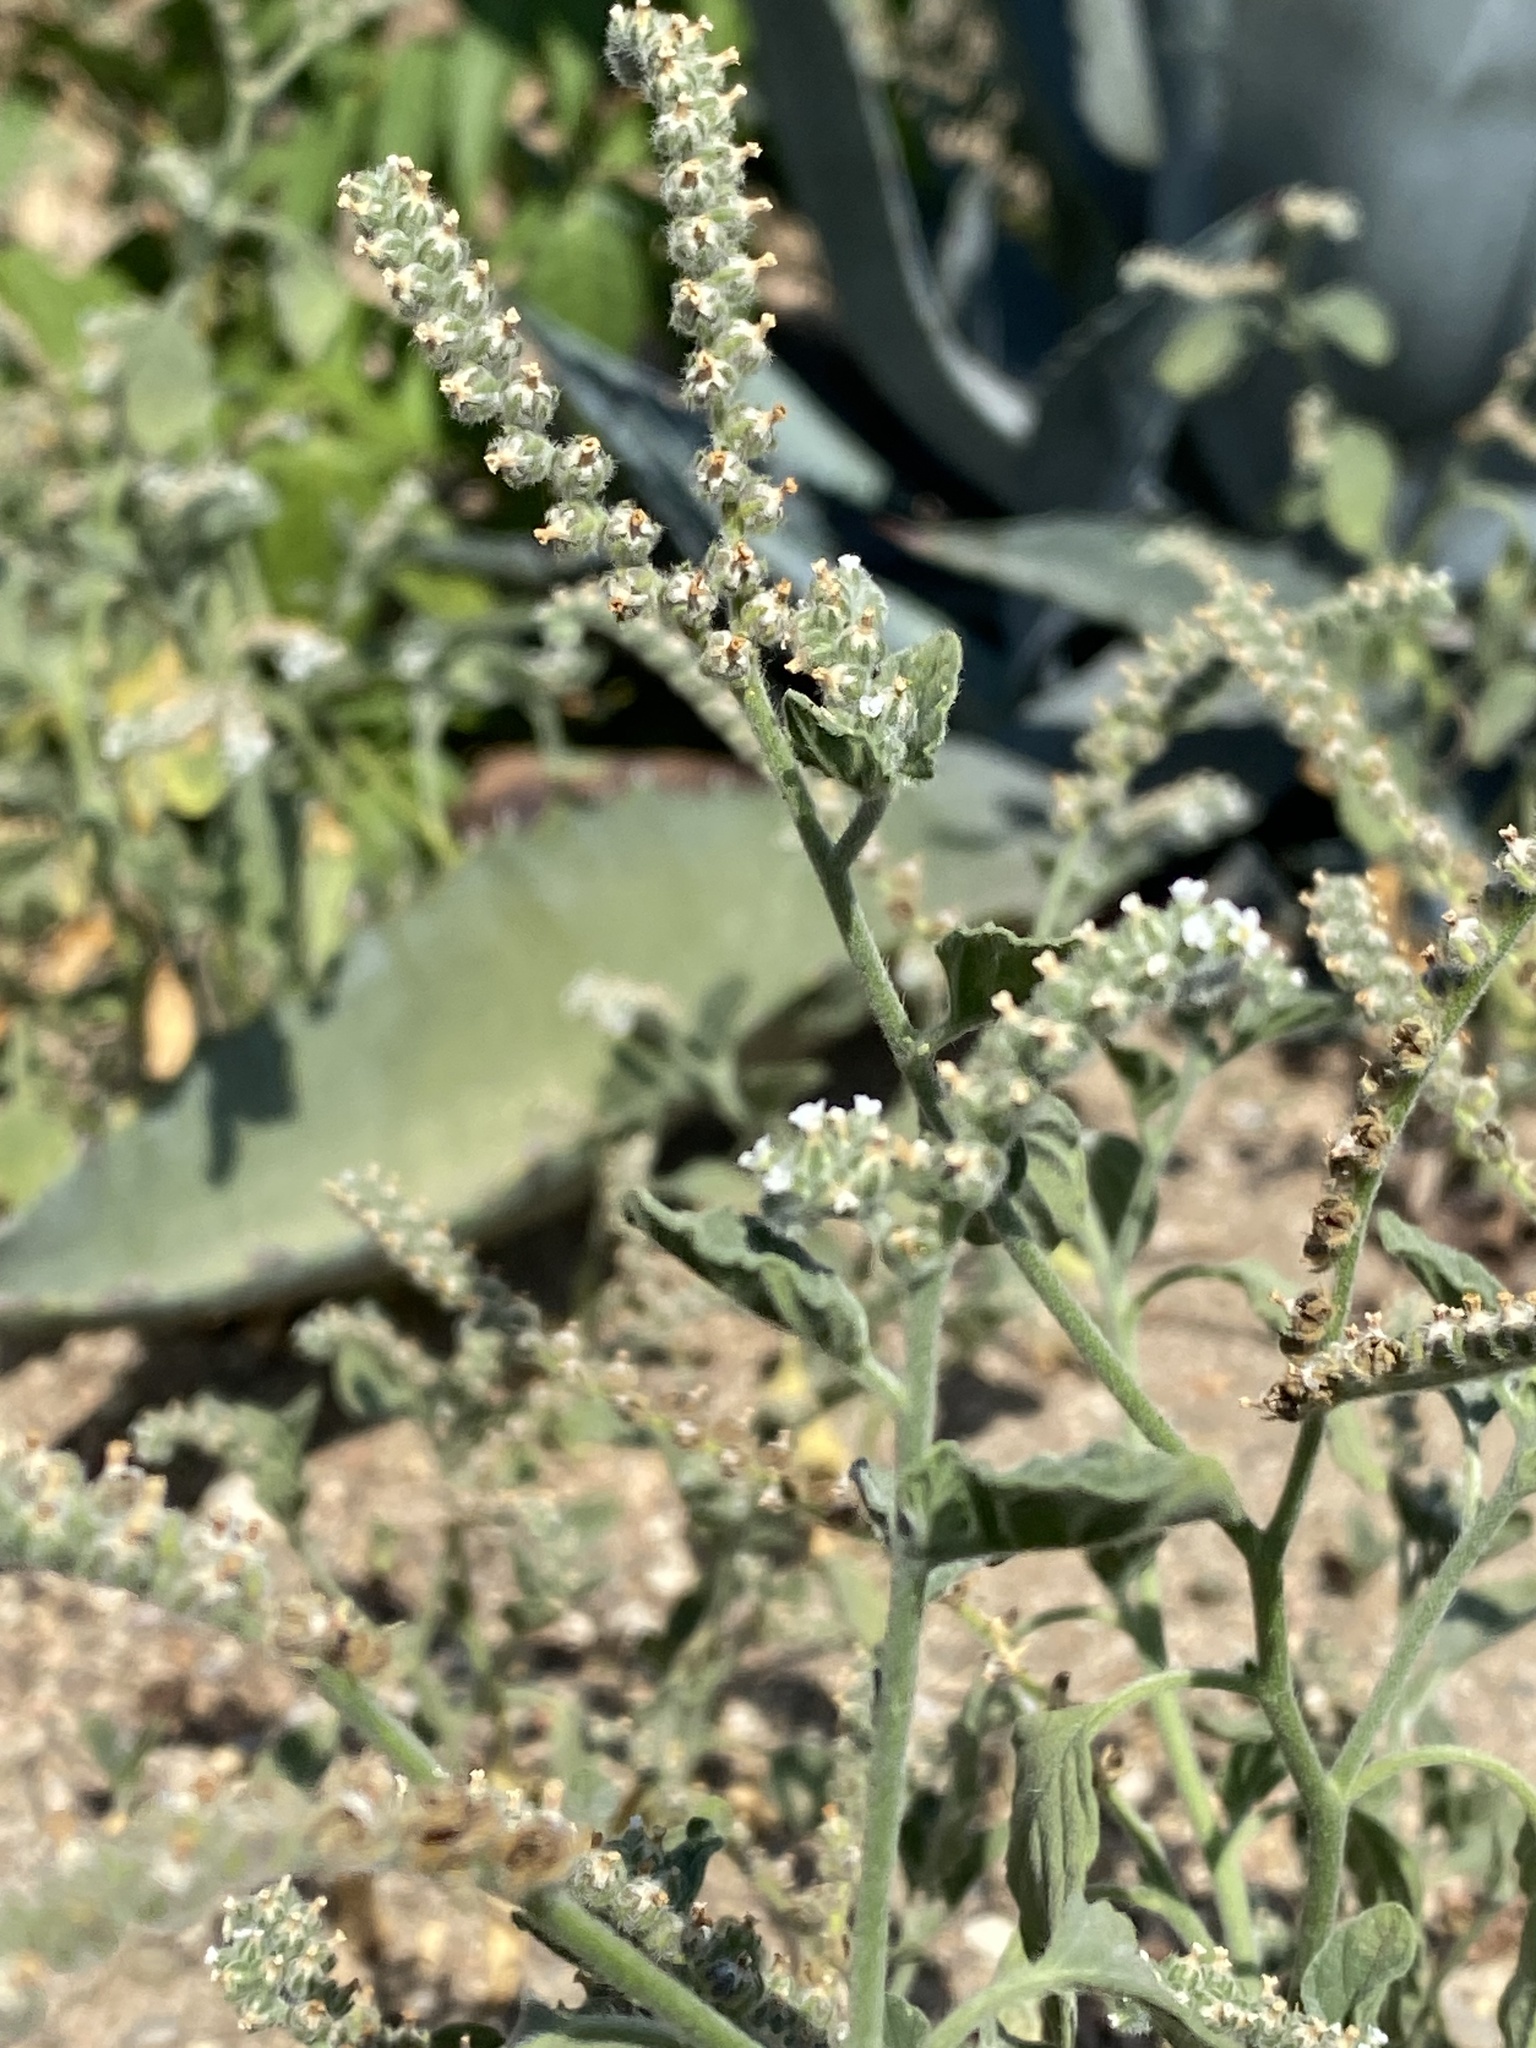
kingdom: Plantae
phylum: Tracheophyta
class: Magnoliopsida
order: Boraginales
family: Heliotropiaceae
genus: Heliotropium
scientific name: Heliotropium europaeum
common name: European heliotrope
